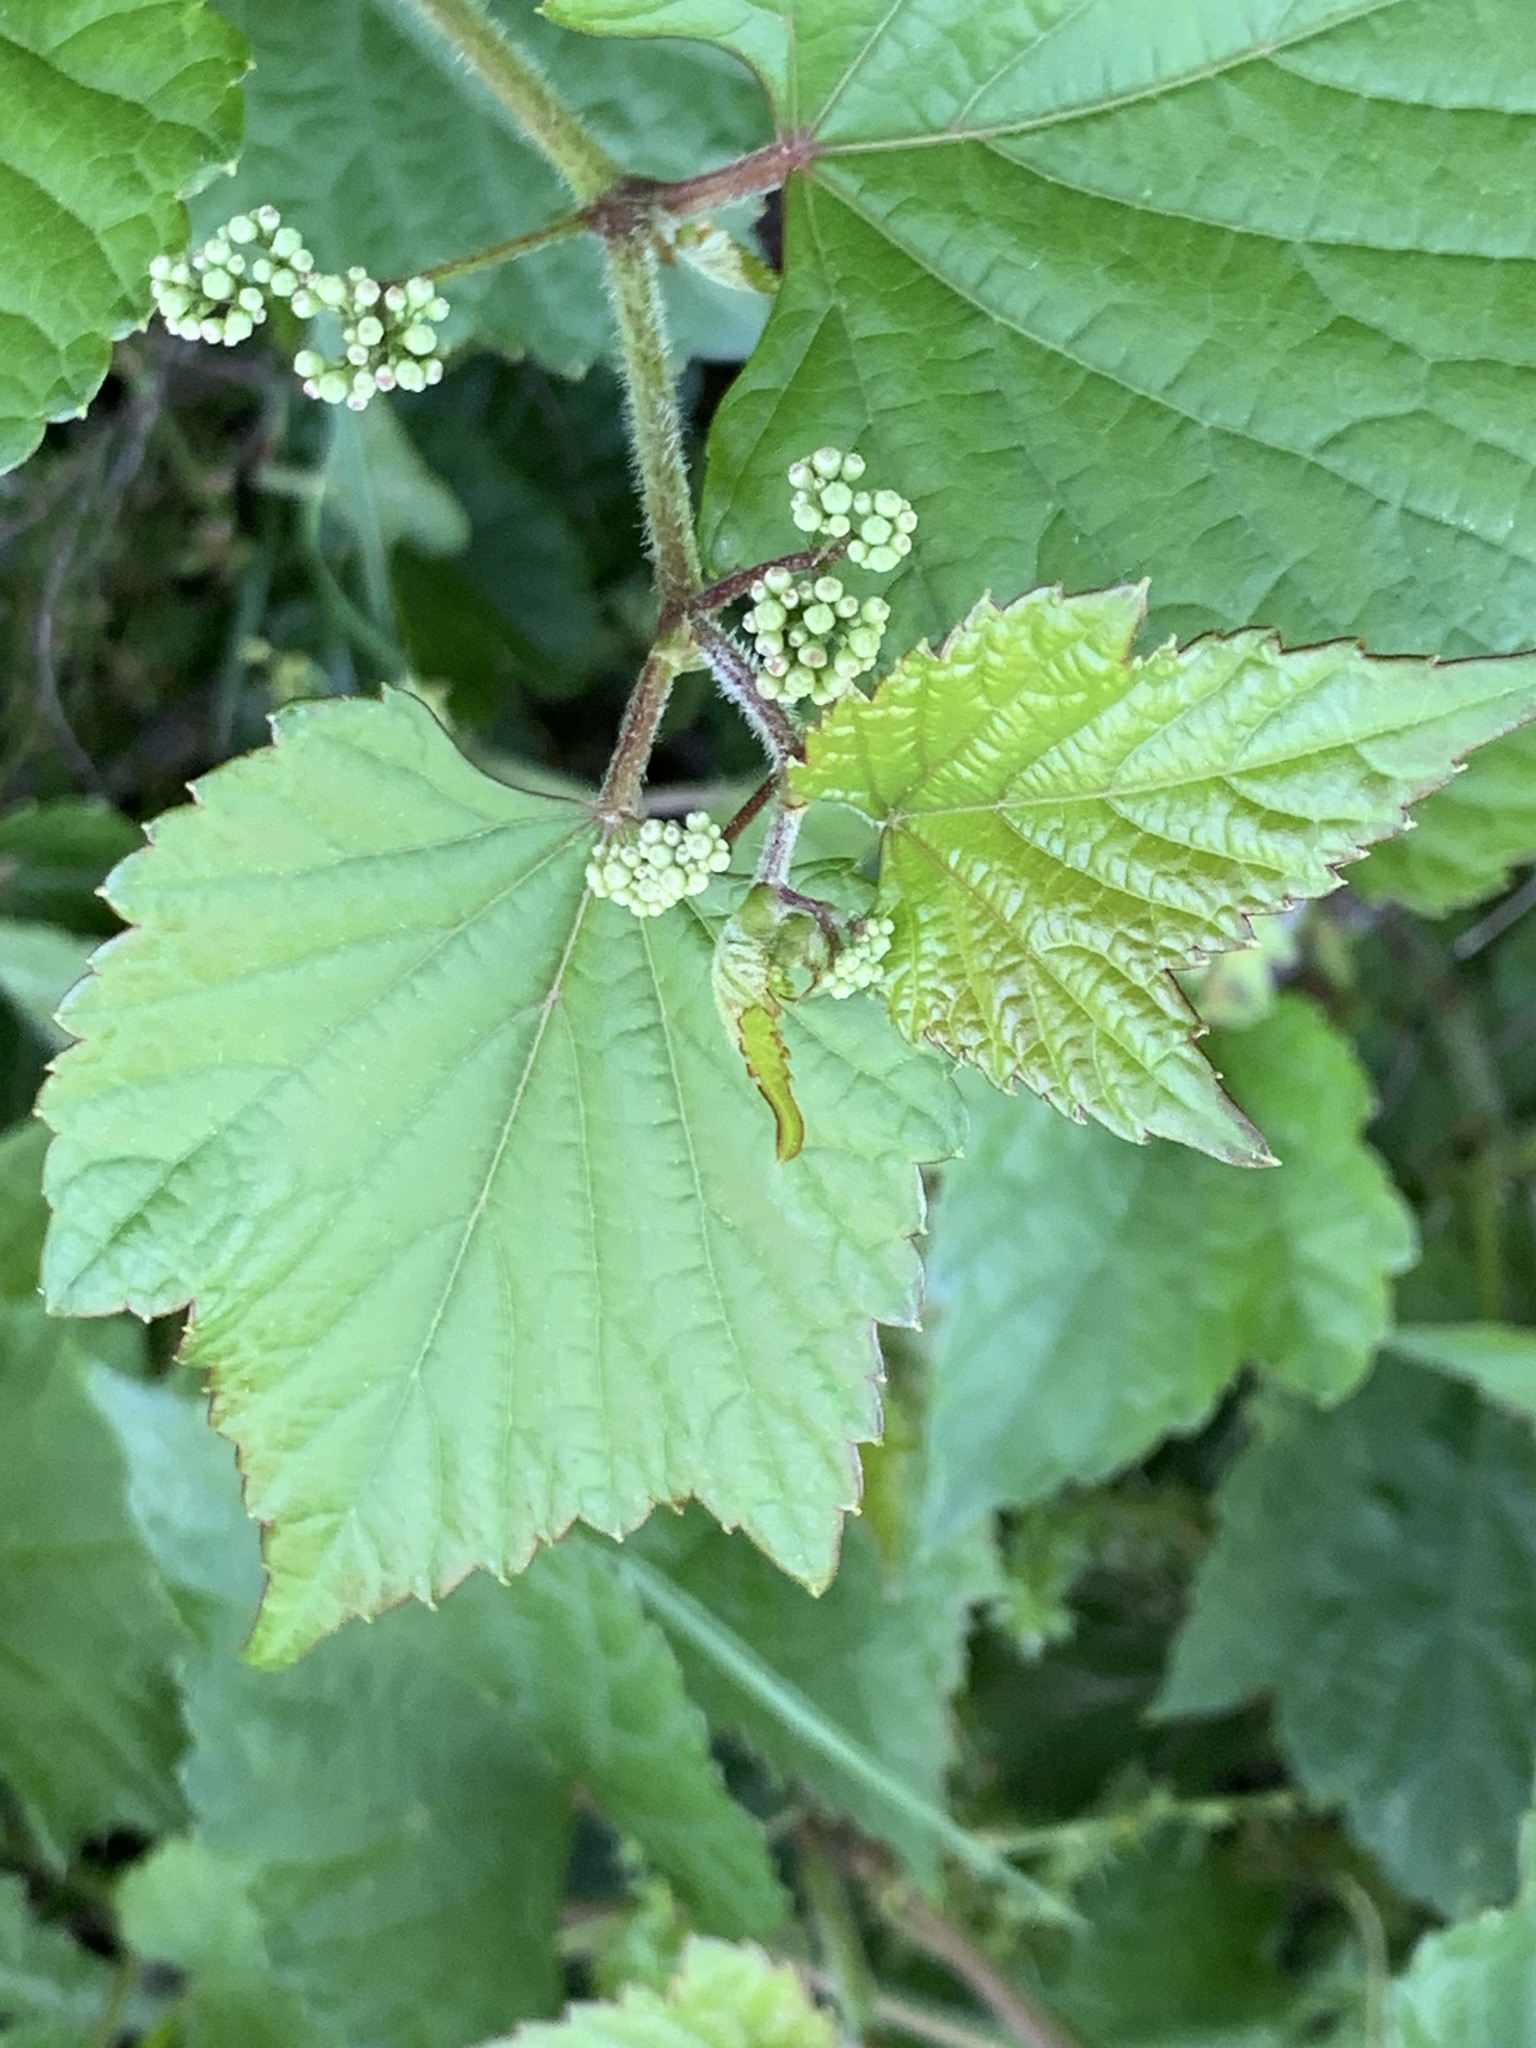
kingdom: Plantae
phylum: Tracheophyta
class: Magnoliopsida
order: Vitales
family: Vitaceae
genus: Ampelopsis
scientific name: Ampelopsis glandulosa
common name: Amur peppervine
